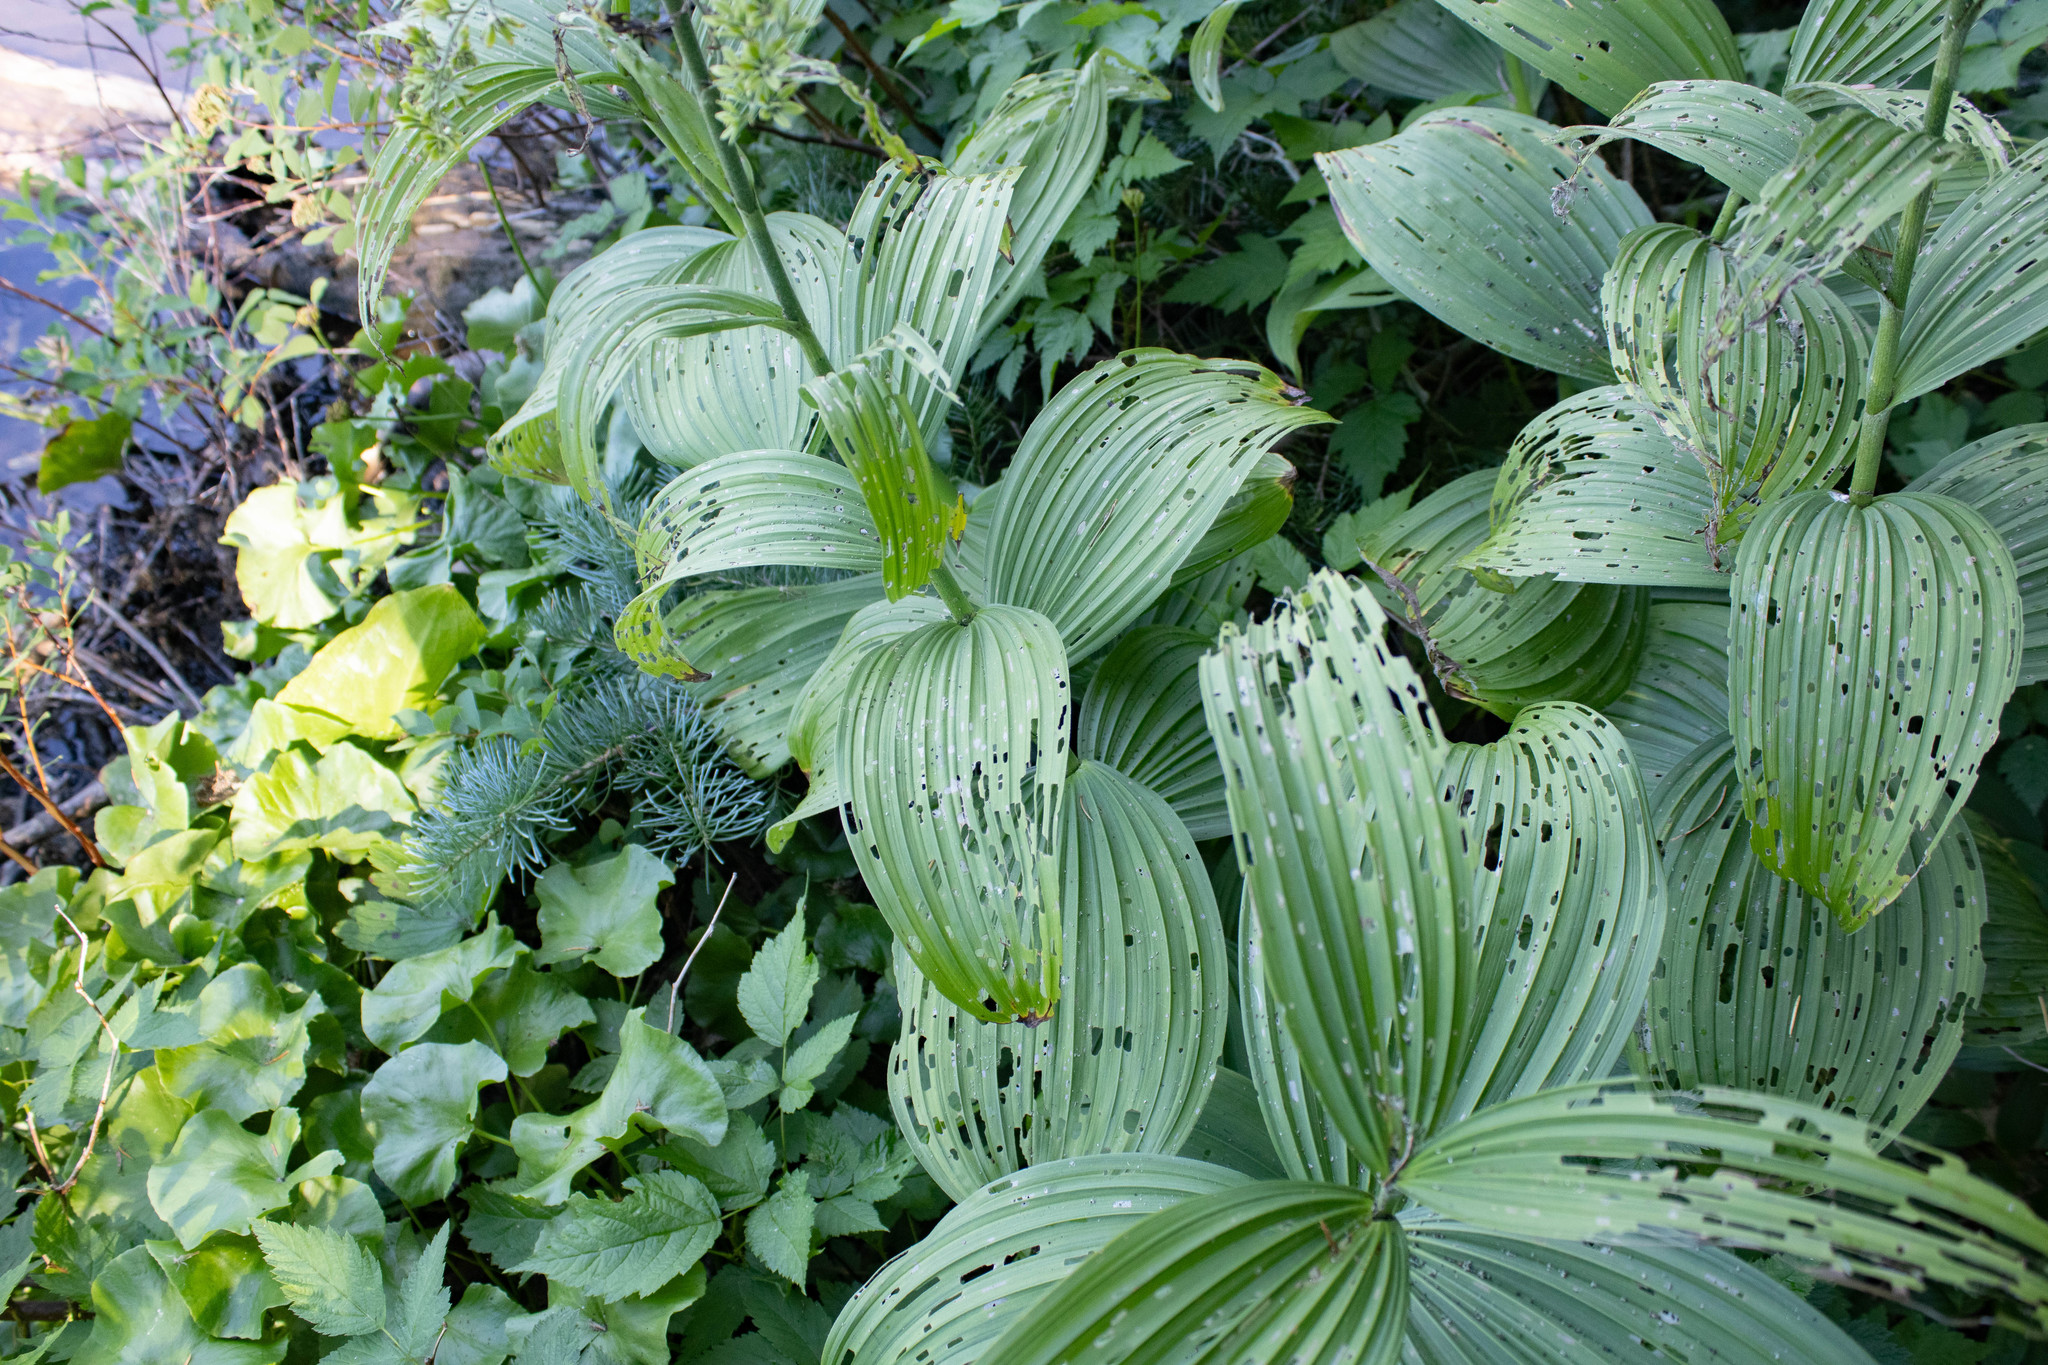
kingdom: Plantae
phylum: Tracheophyta
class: Liliopsida
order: Liliales
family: Melanthiaceae
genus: Veratrum
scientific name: Veratrum viride
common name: American false hellebore
